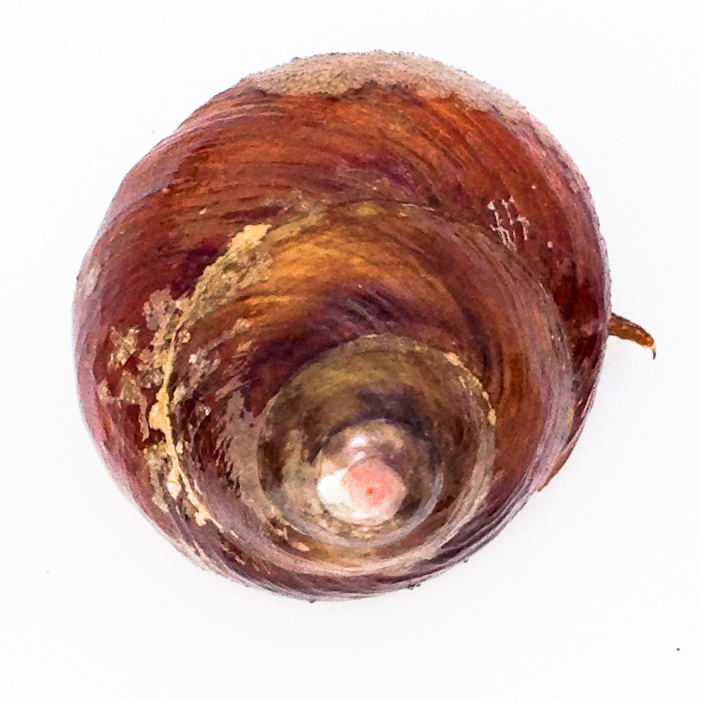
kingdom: Animalia
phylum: Mollusca
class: Gastropoda
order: Trochida
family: Tegulidae
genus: Tegula
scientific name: Tegula brunnea
